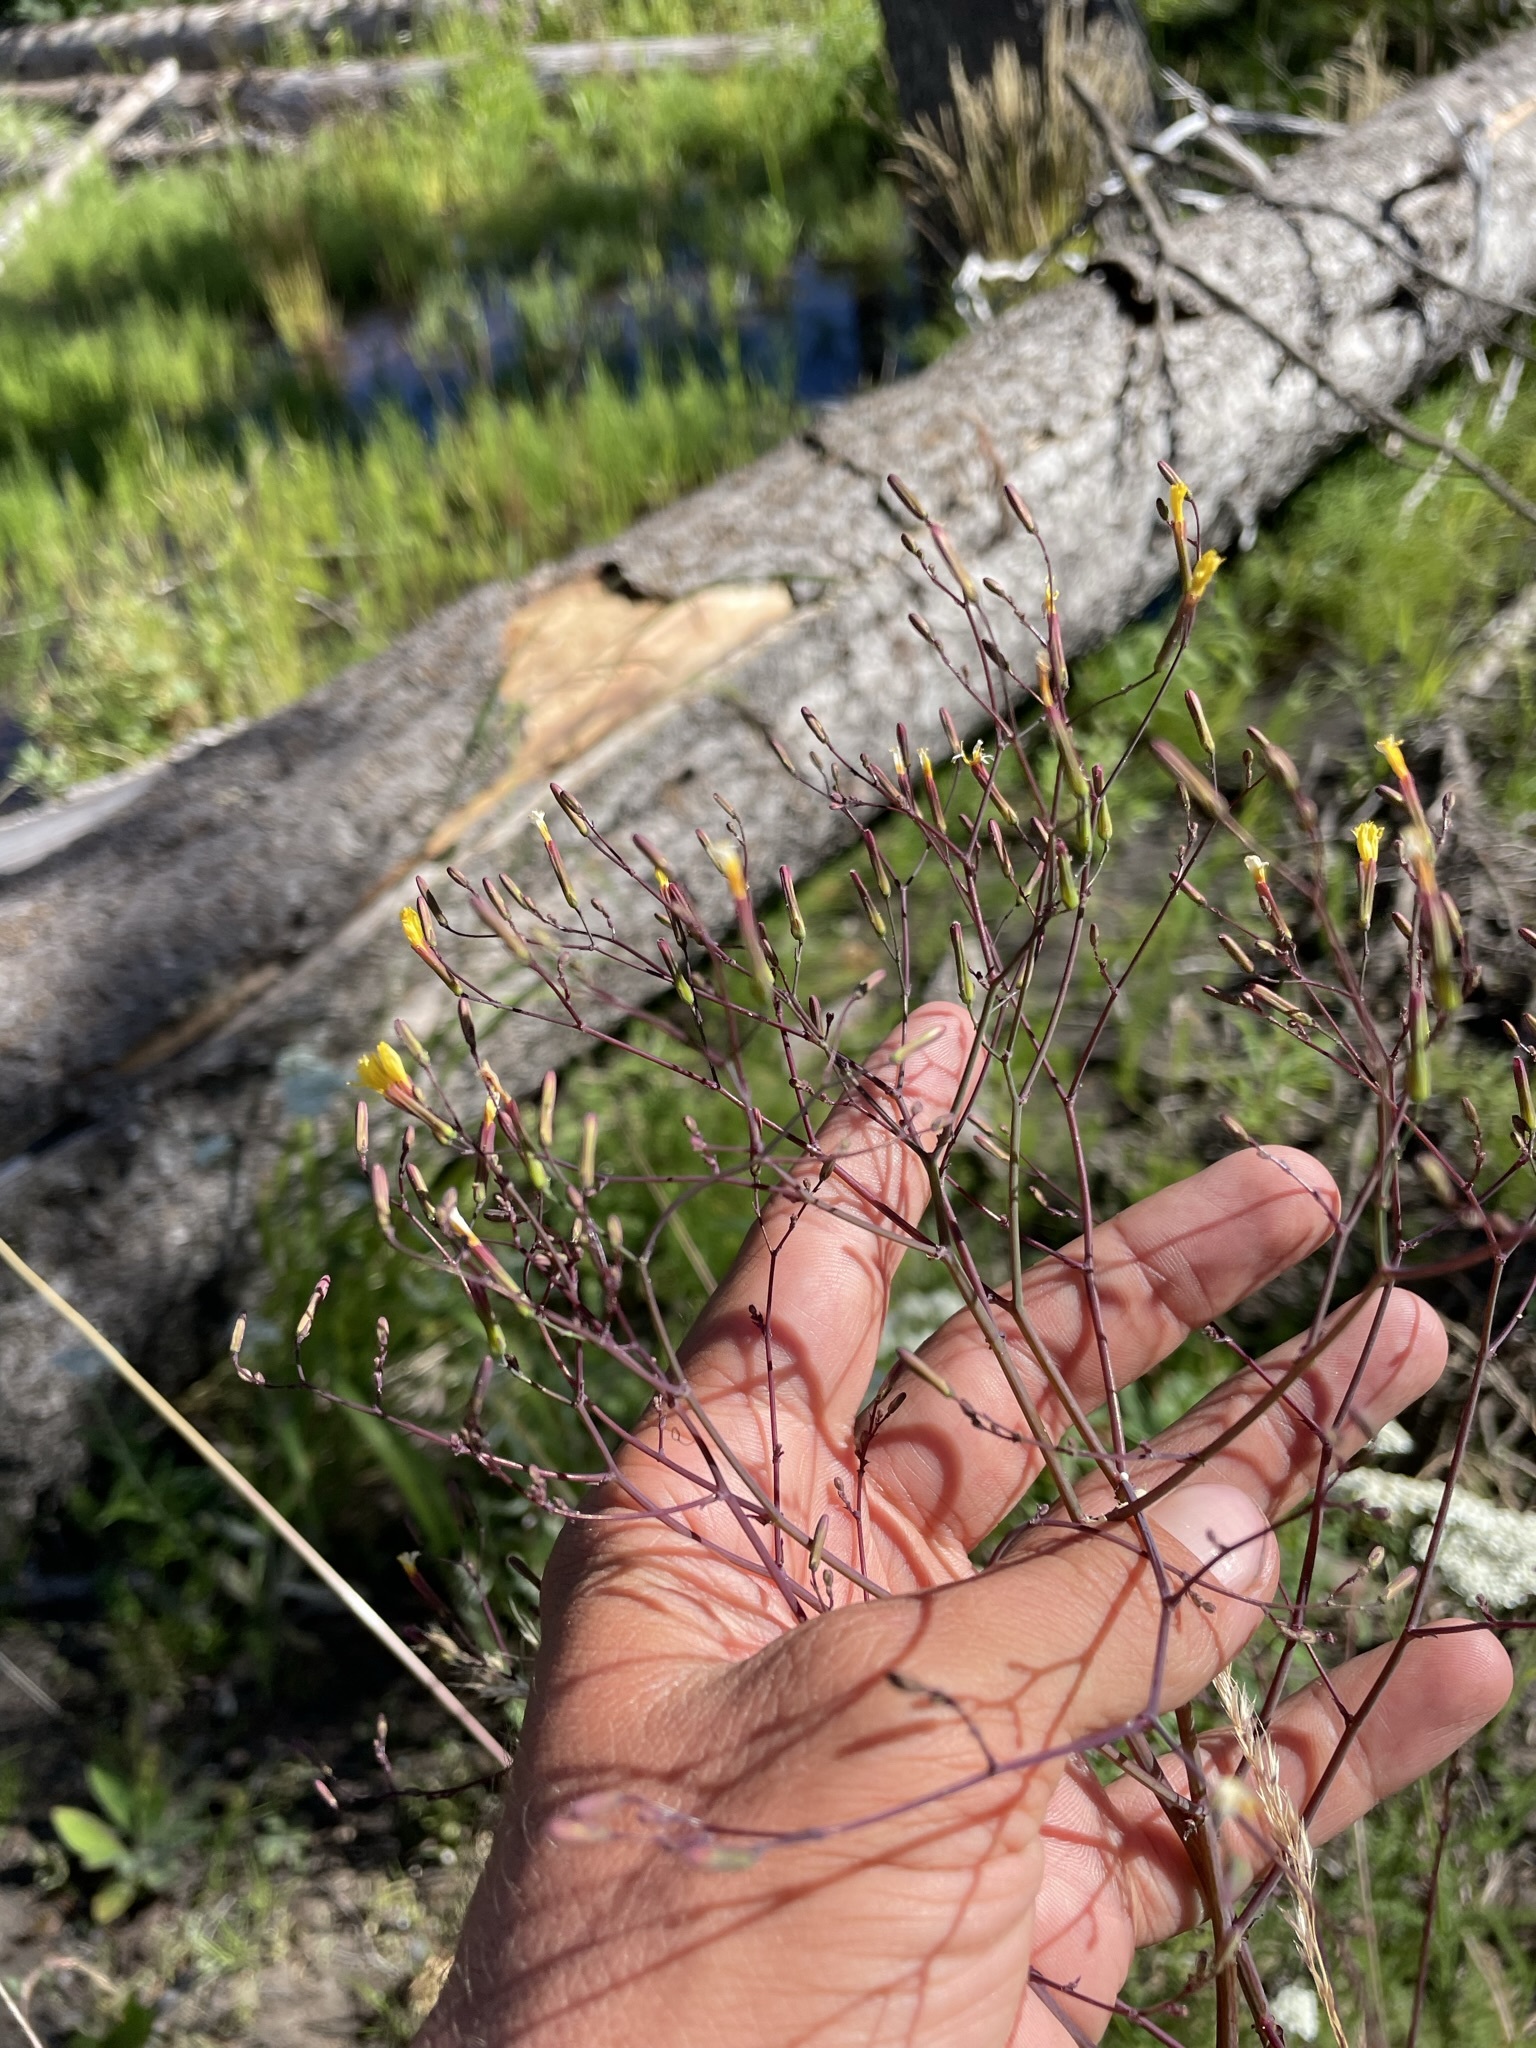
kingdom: Plantae
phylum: Tracheophyta
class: Magnoliopsida
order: Asterales
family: Asteraceae
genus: Mycelis
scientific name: Mycelis muralis
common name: Wall lettuce
